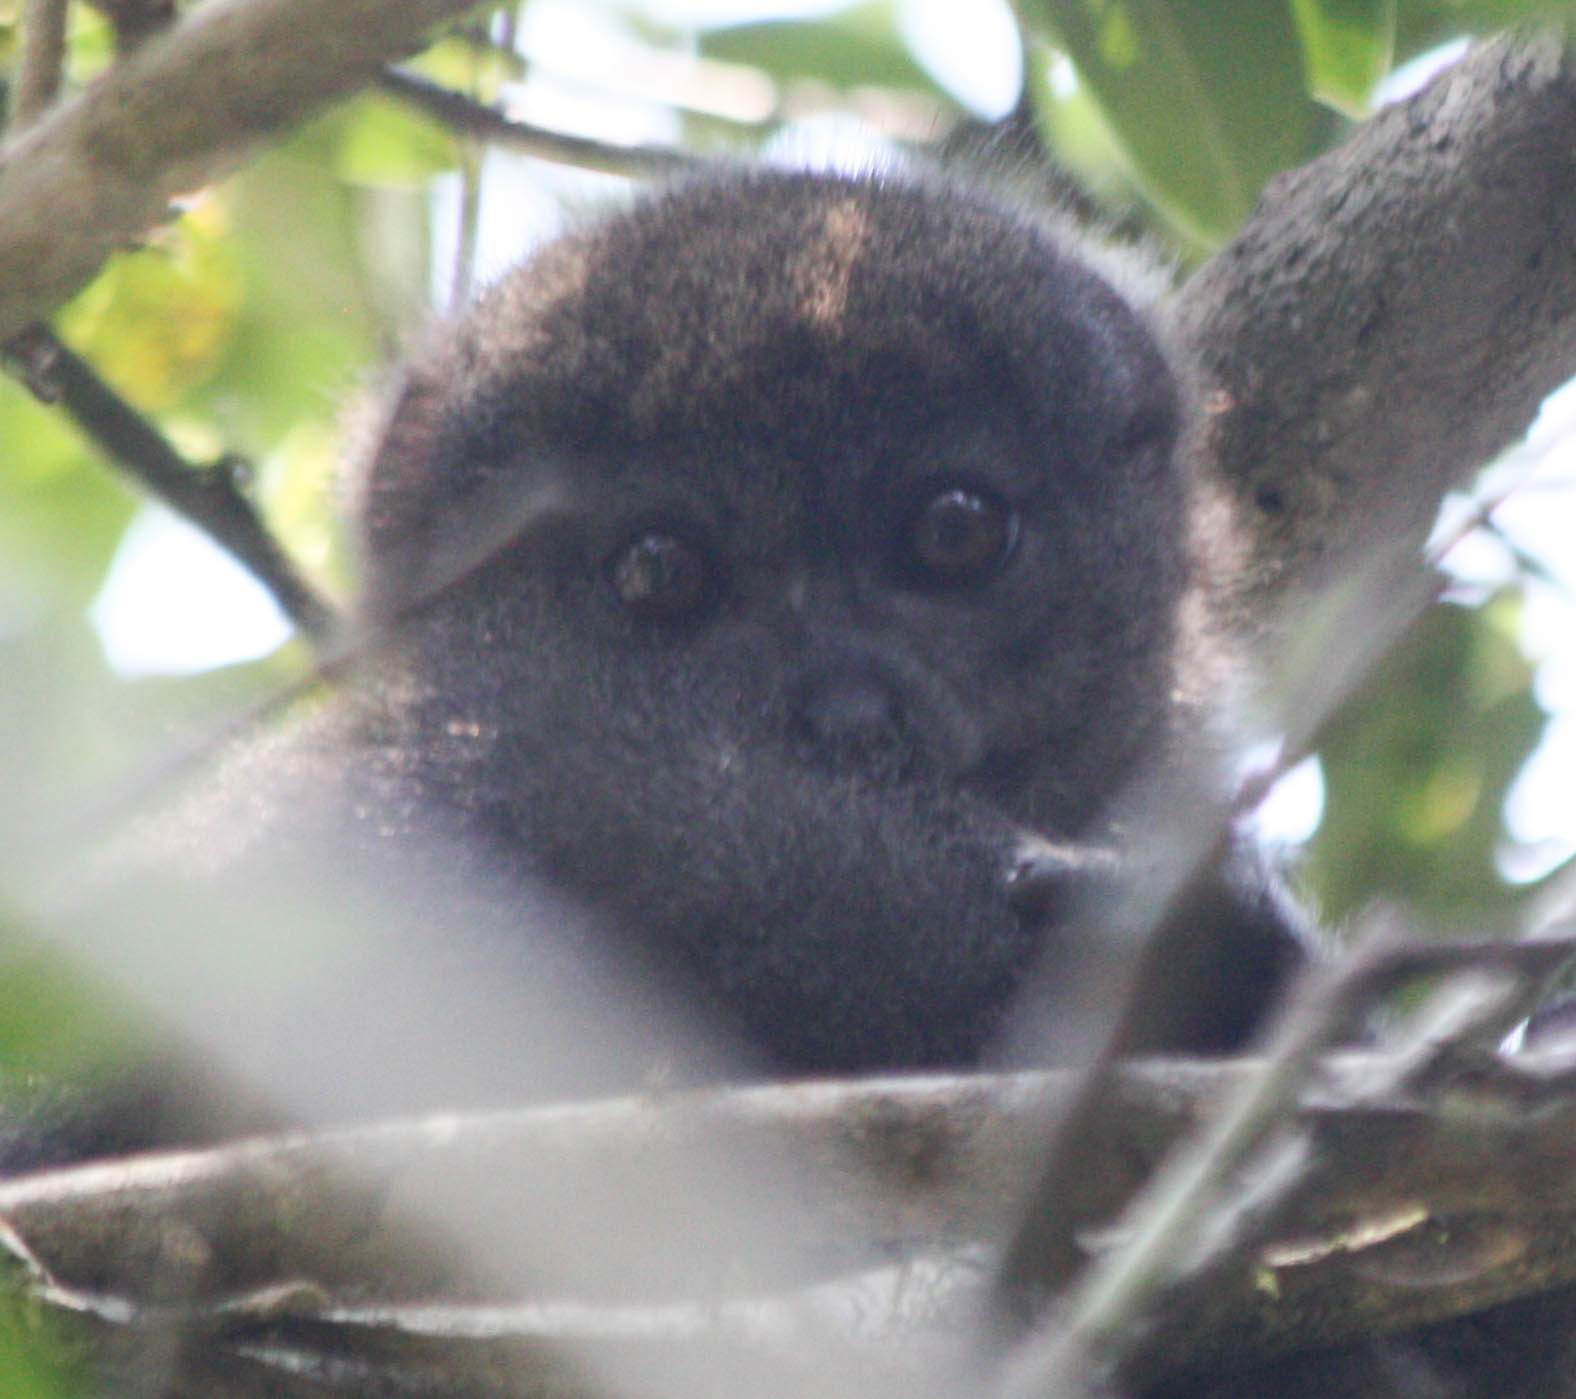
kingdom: Animalia
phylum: Chordata
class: Mammalia
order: Primates
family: Lemuridae
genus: Hapalemur
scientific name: Hapalemur griseus
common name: Gray bamboo lemur
